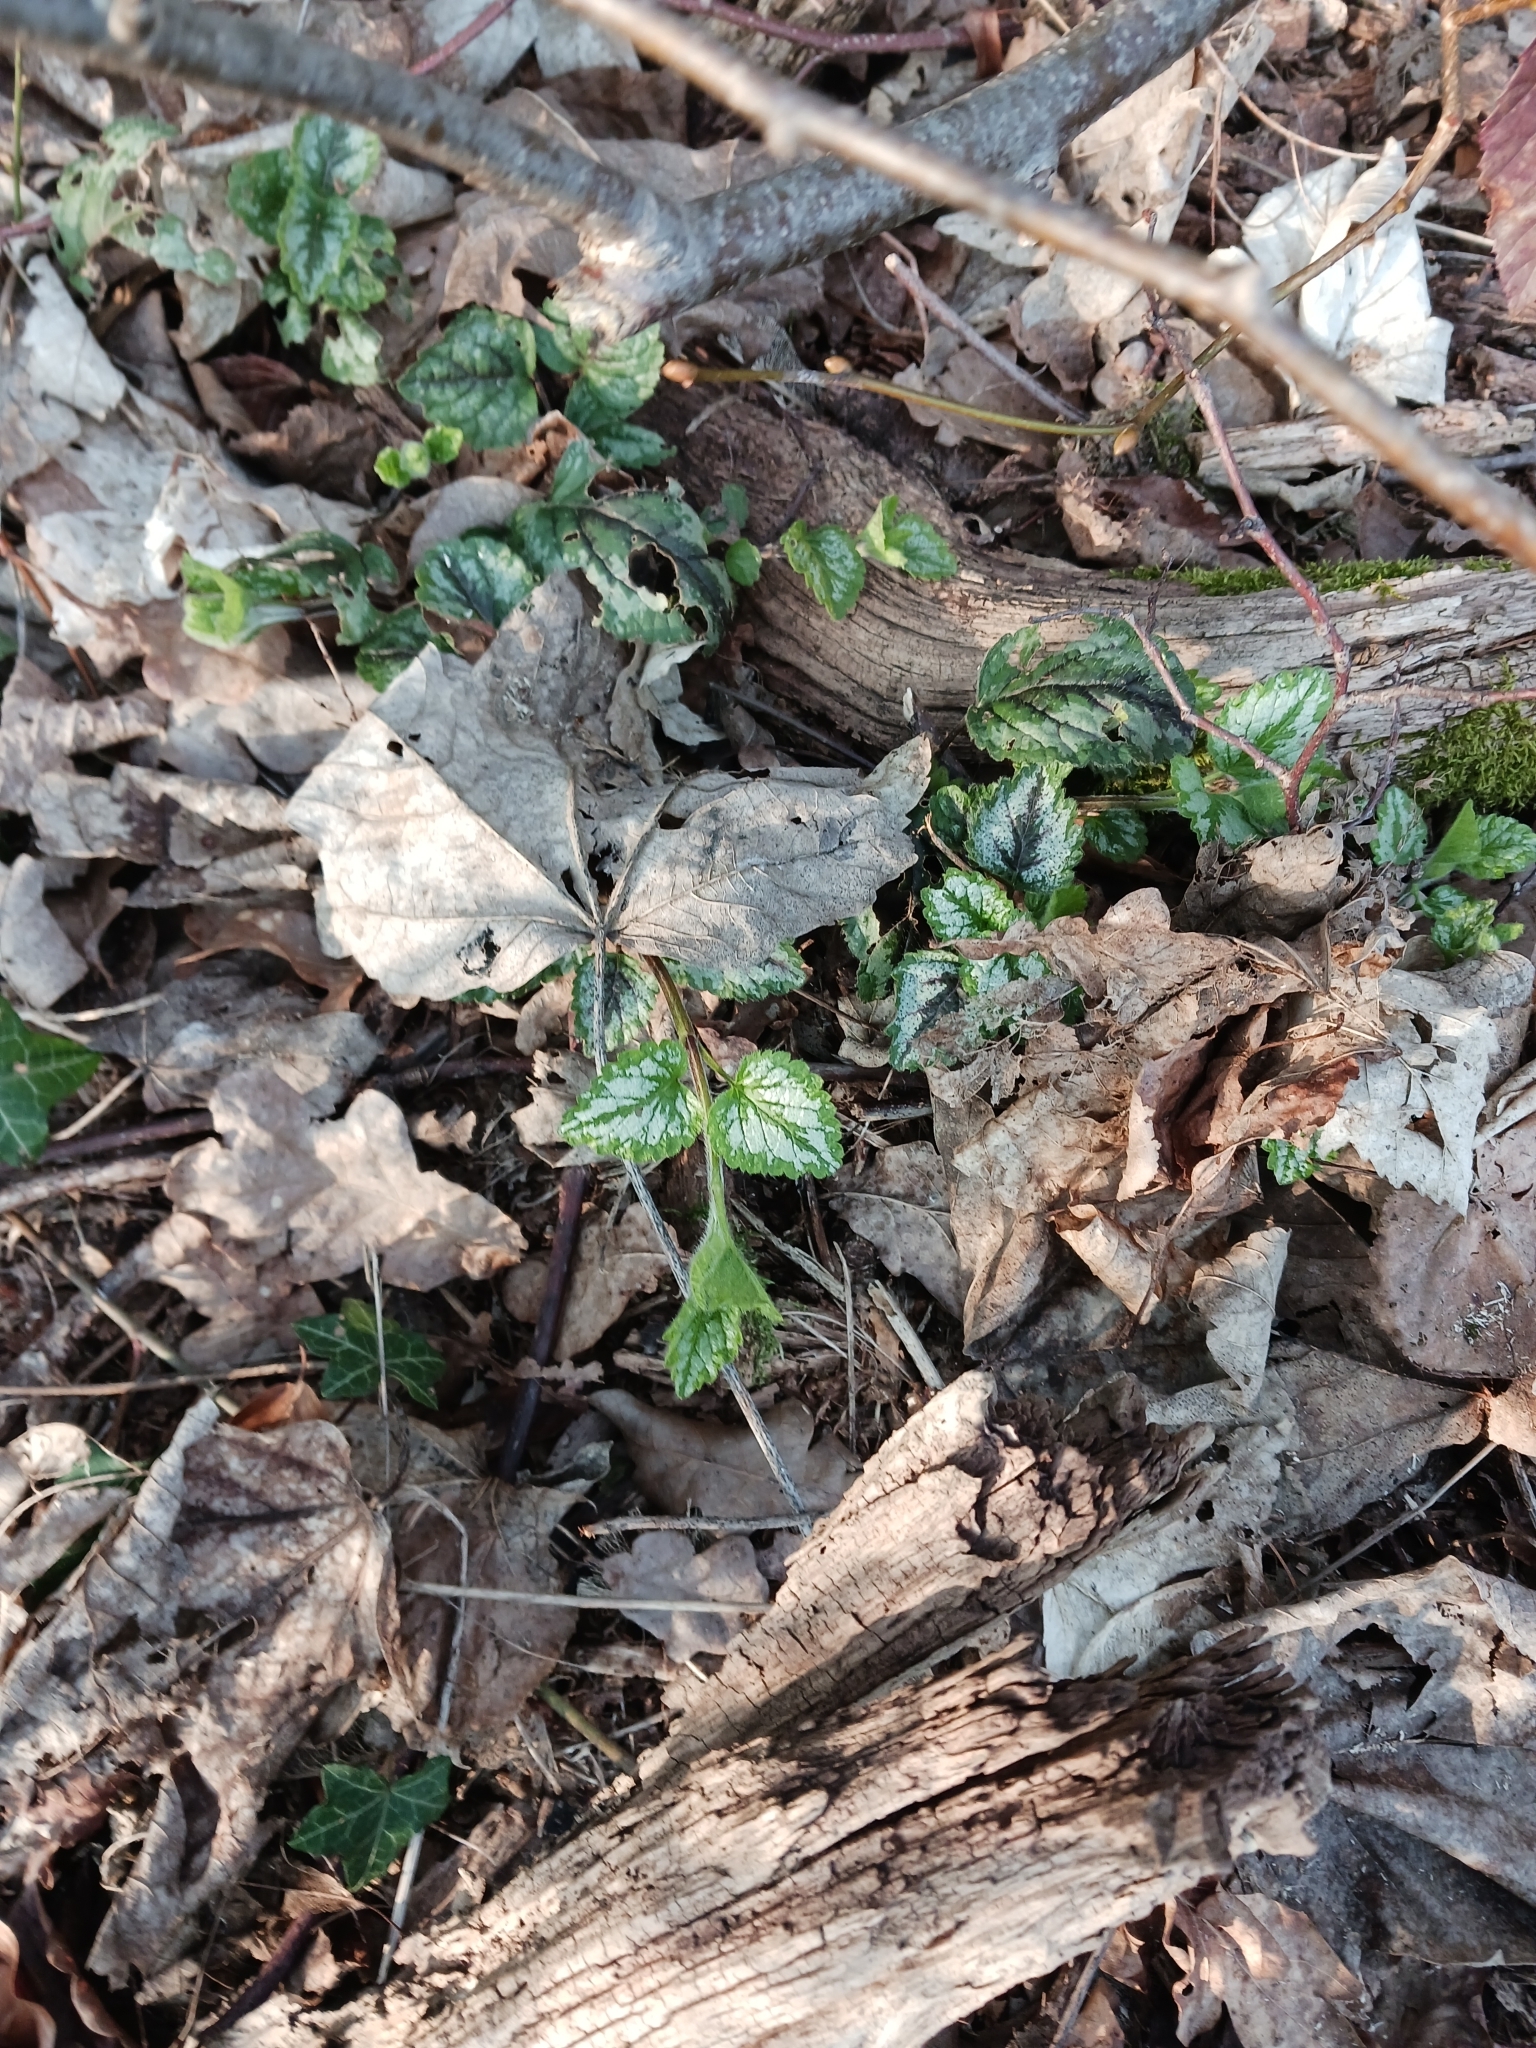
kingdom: Plantae
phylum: Tracheophyta
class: Magnoliopsida
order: Lamiales
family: Lamiaceae
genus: Lamium
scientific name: Lamium galeobdolon
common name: Yellow archangel
